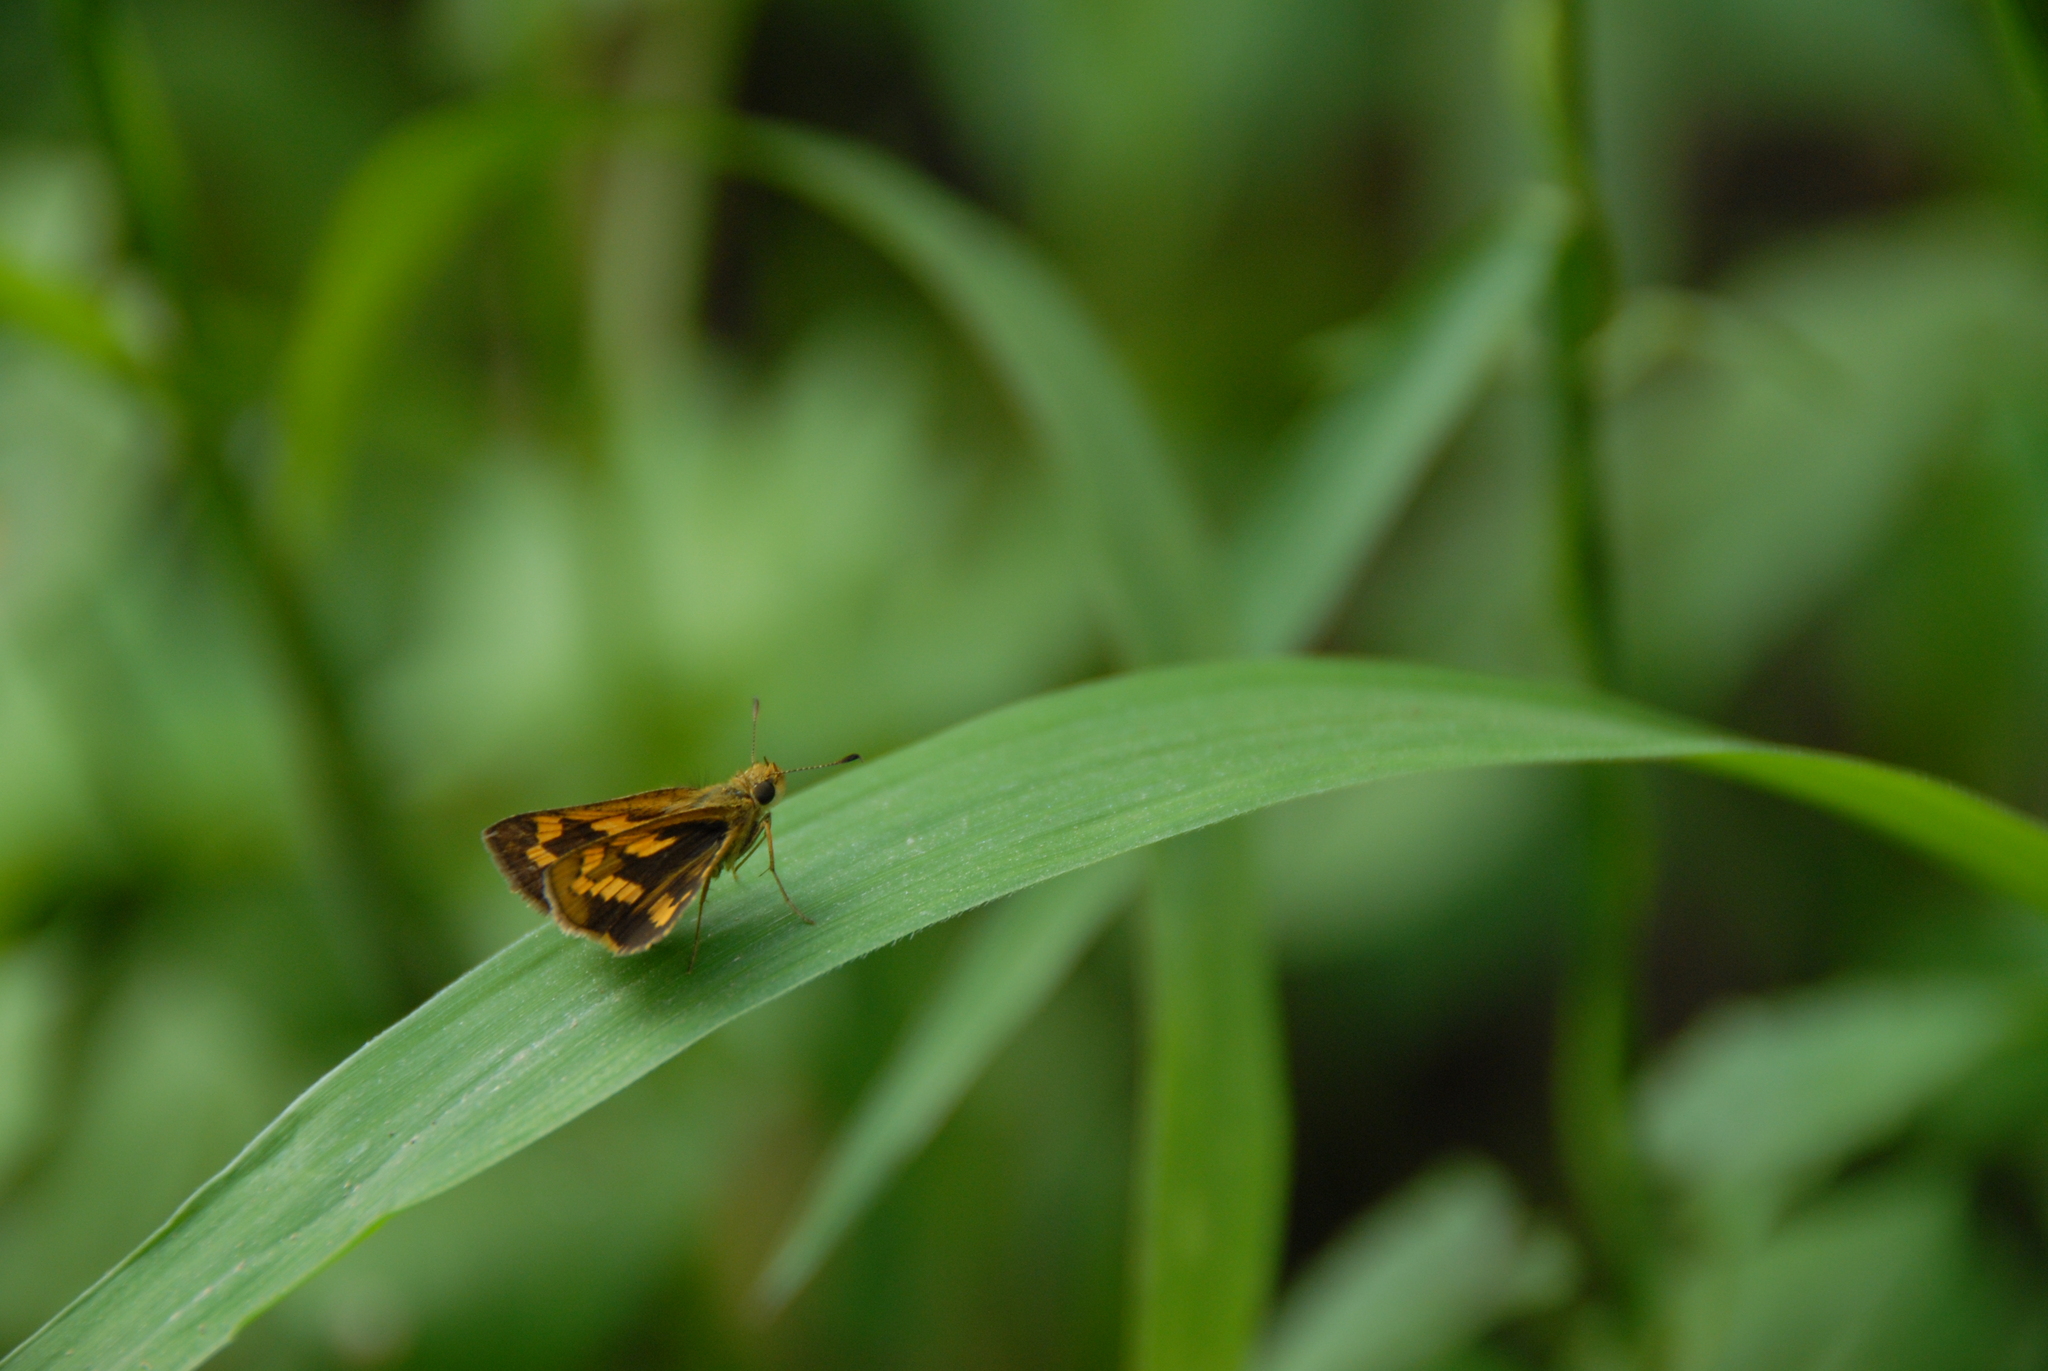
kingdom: Animalia
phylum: Arthropoda
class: Insecta
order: Lepidoptera
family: Hesperiidae
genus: Potanthus
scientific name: Potanthus confucius
